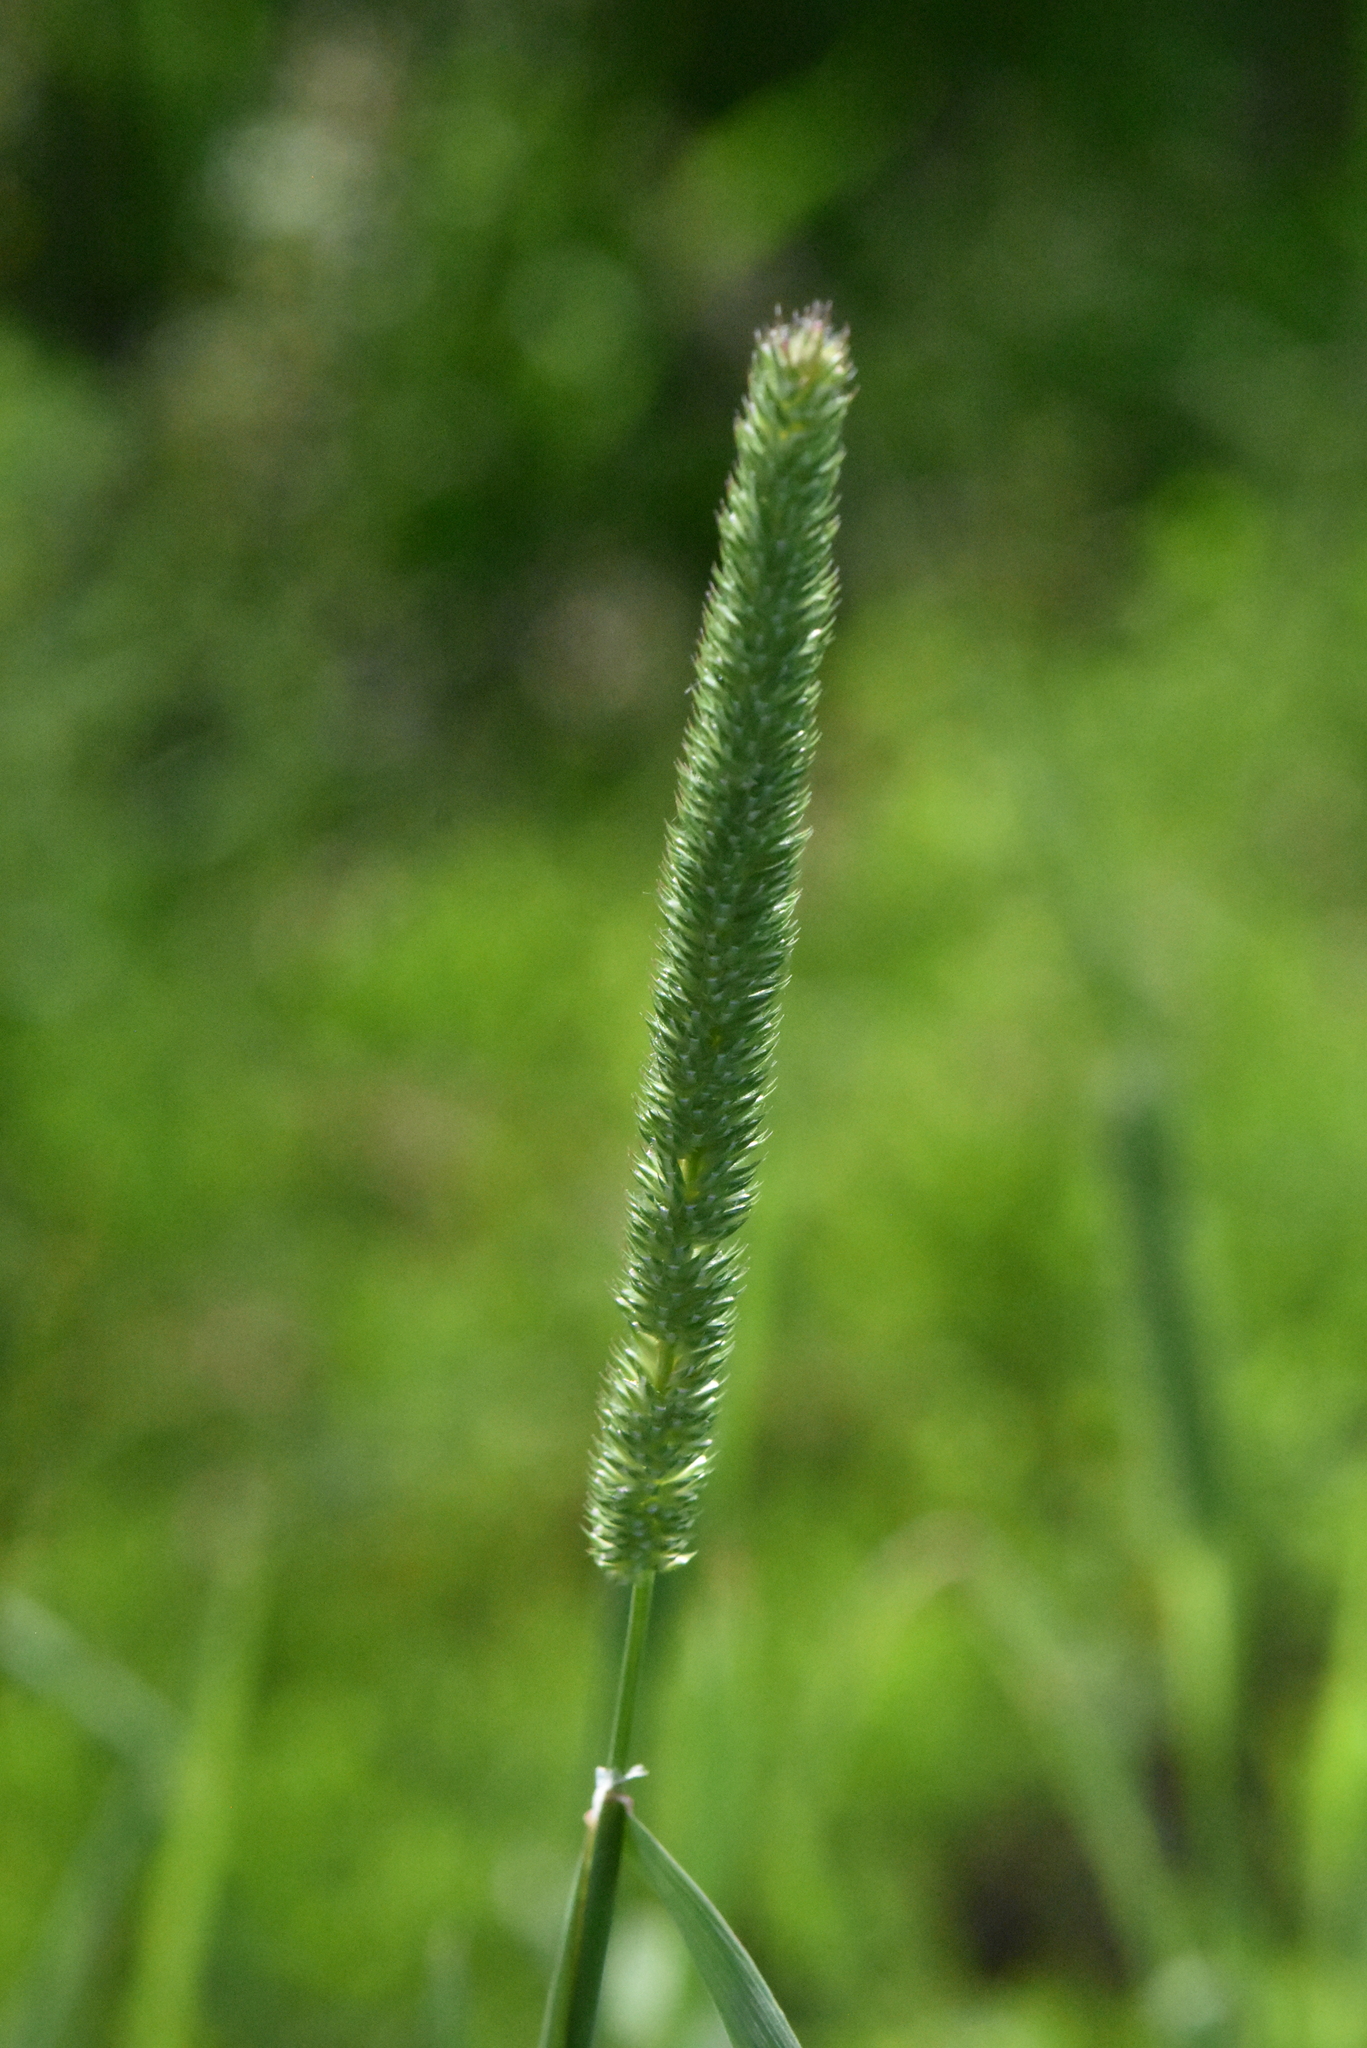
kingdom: Plantae
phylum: Tracheophyta
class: Liliopsida
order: Poales
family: Poaceae
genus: Phleum
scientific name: Phleum pratense
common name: Timothy grass
